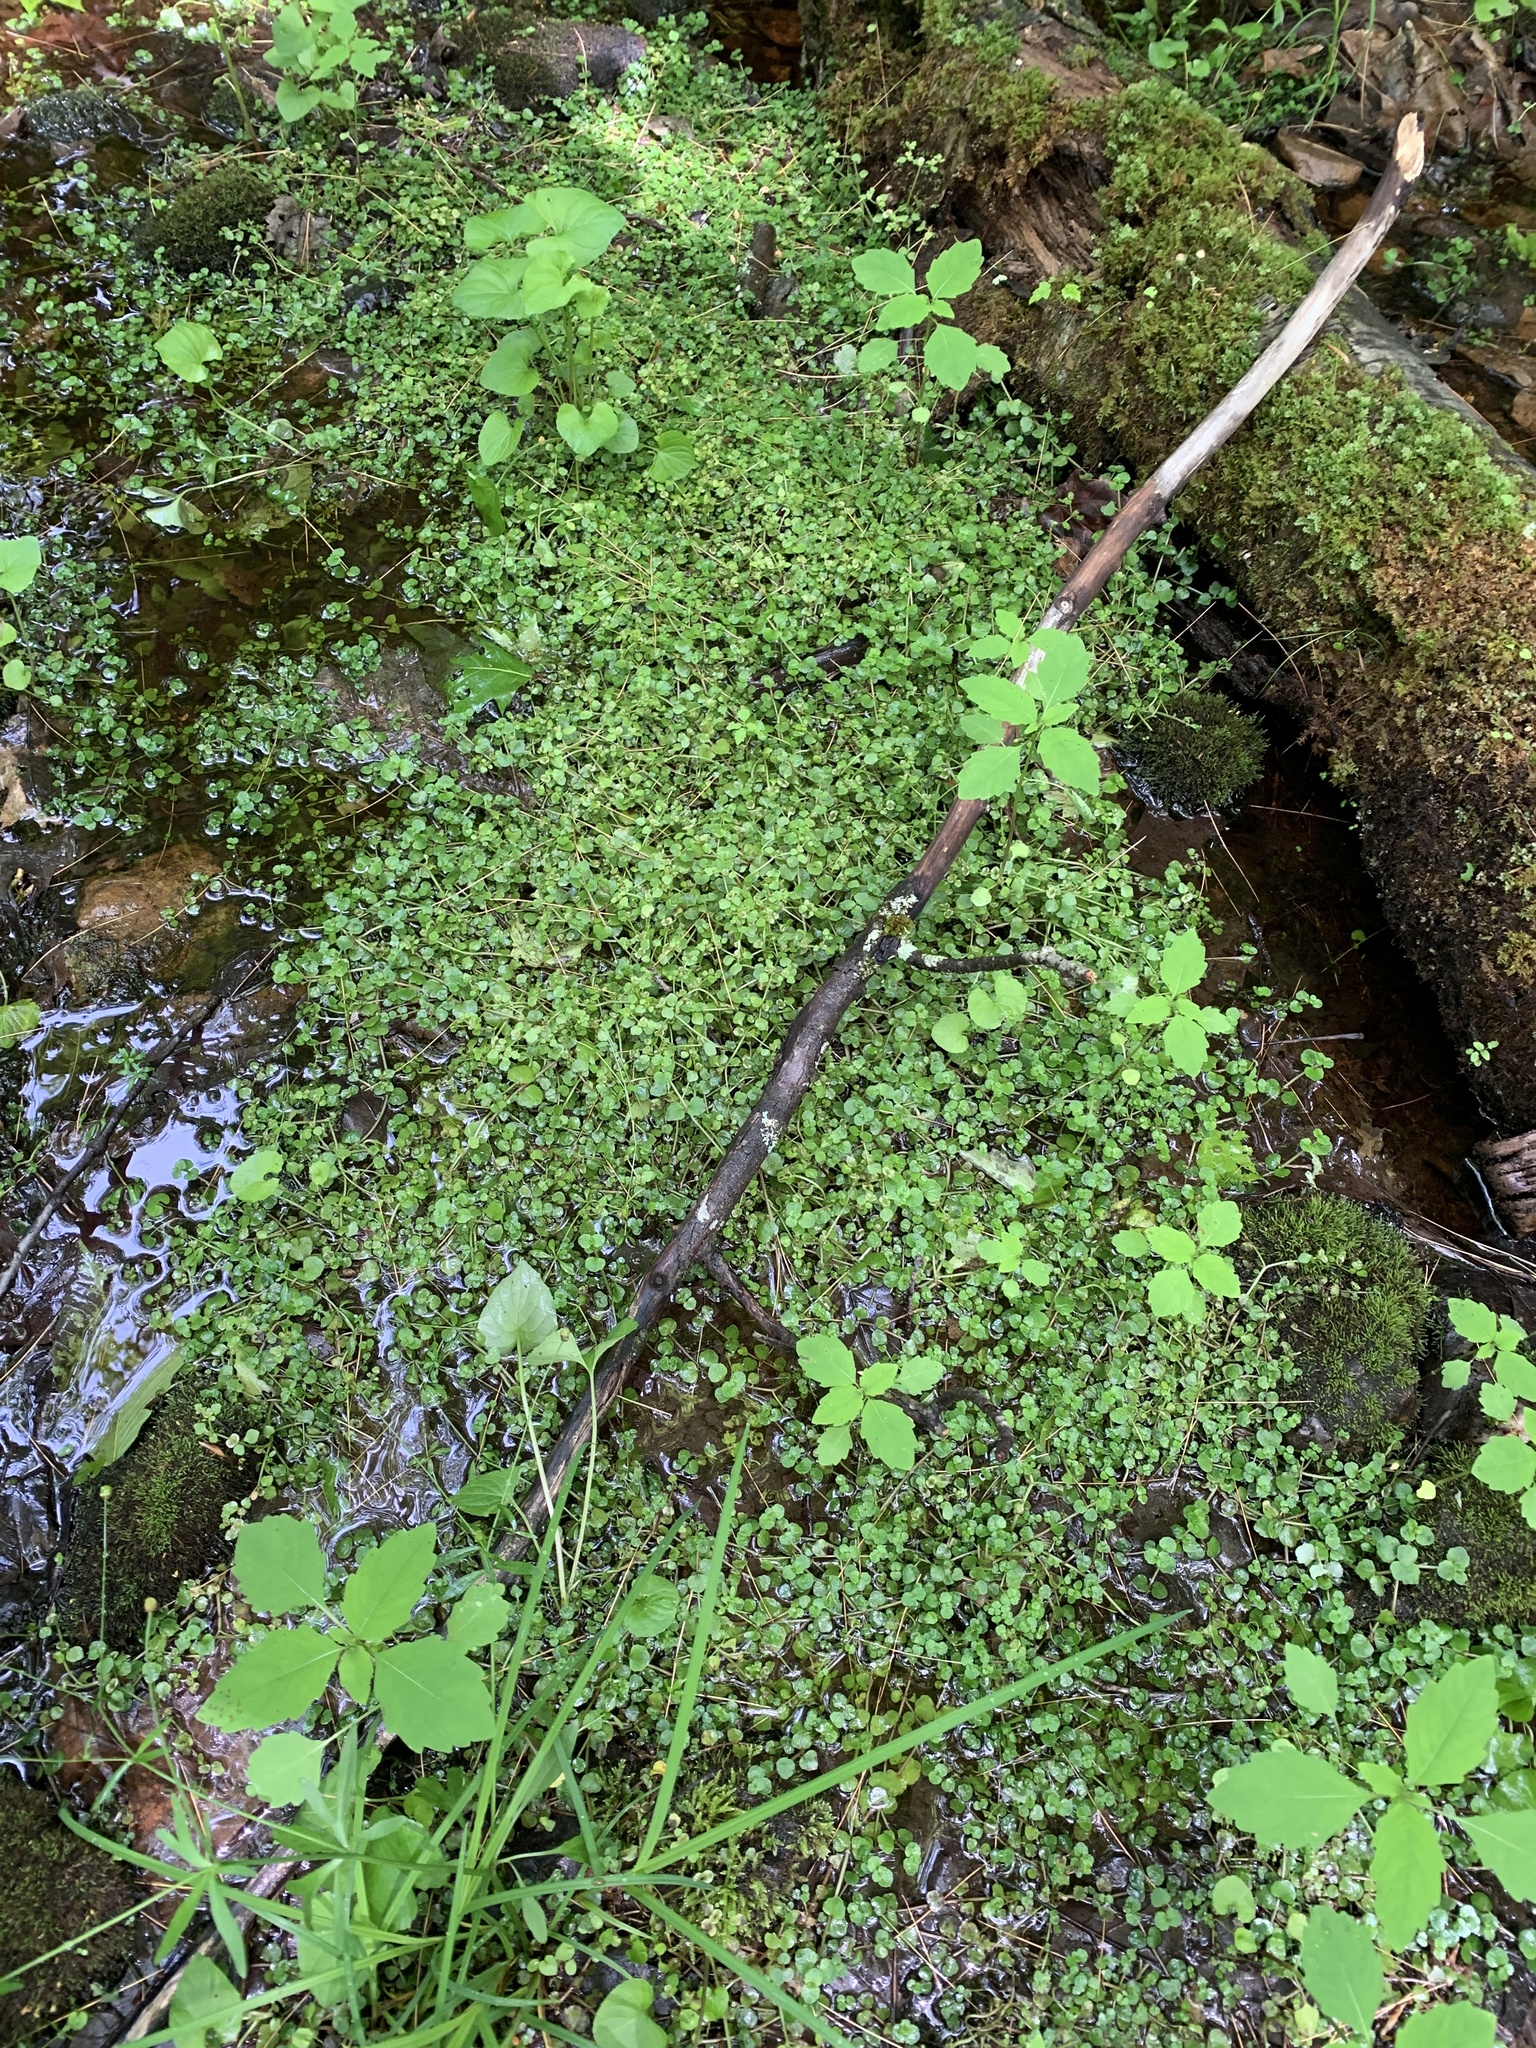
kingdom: Plantae
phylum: Tracheophyta
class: Magnoliopsida
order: Saxifragales
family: Saxifragaceae
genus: Chrysosplenium
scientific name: Chrysosplenium americanum
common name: American golden-saxifrage
